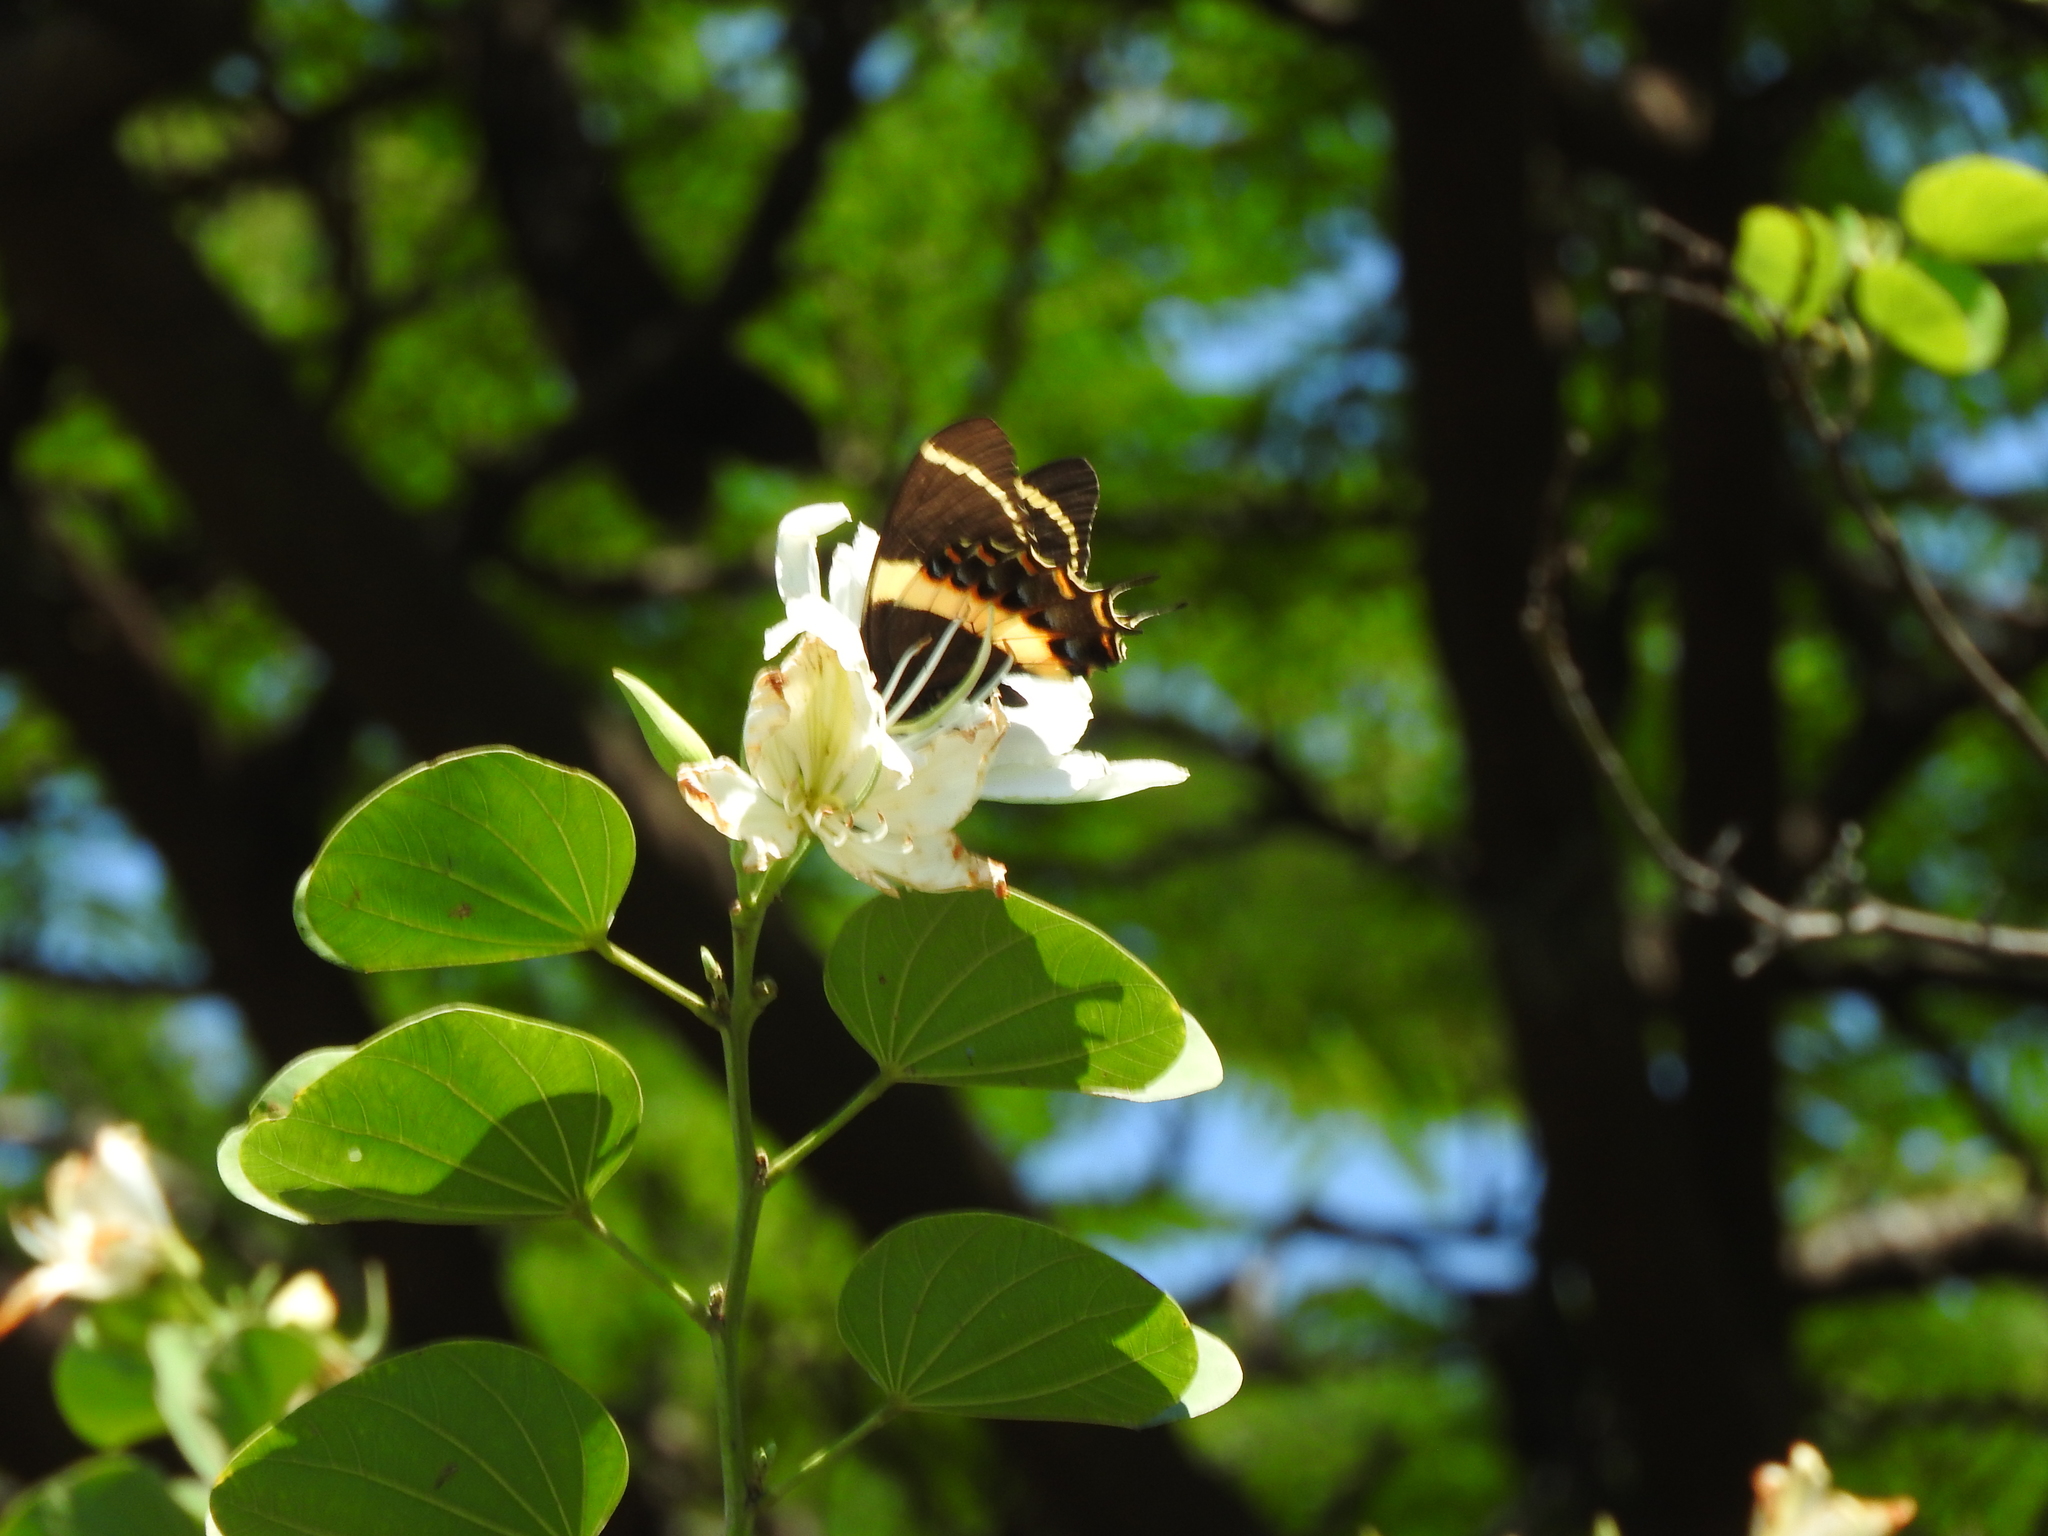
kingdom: Animalia
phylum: Arthropoda
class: Insecta
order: Lepidoptera
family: Papilionidae
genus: Papilio
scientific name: Papilio garamas
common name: Magnificent swallowtail
